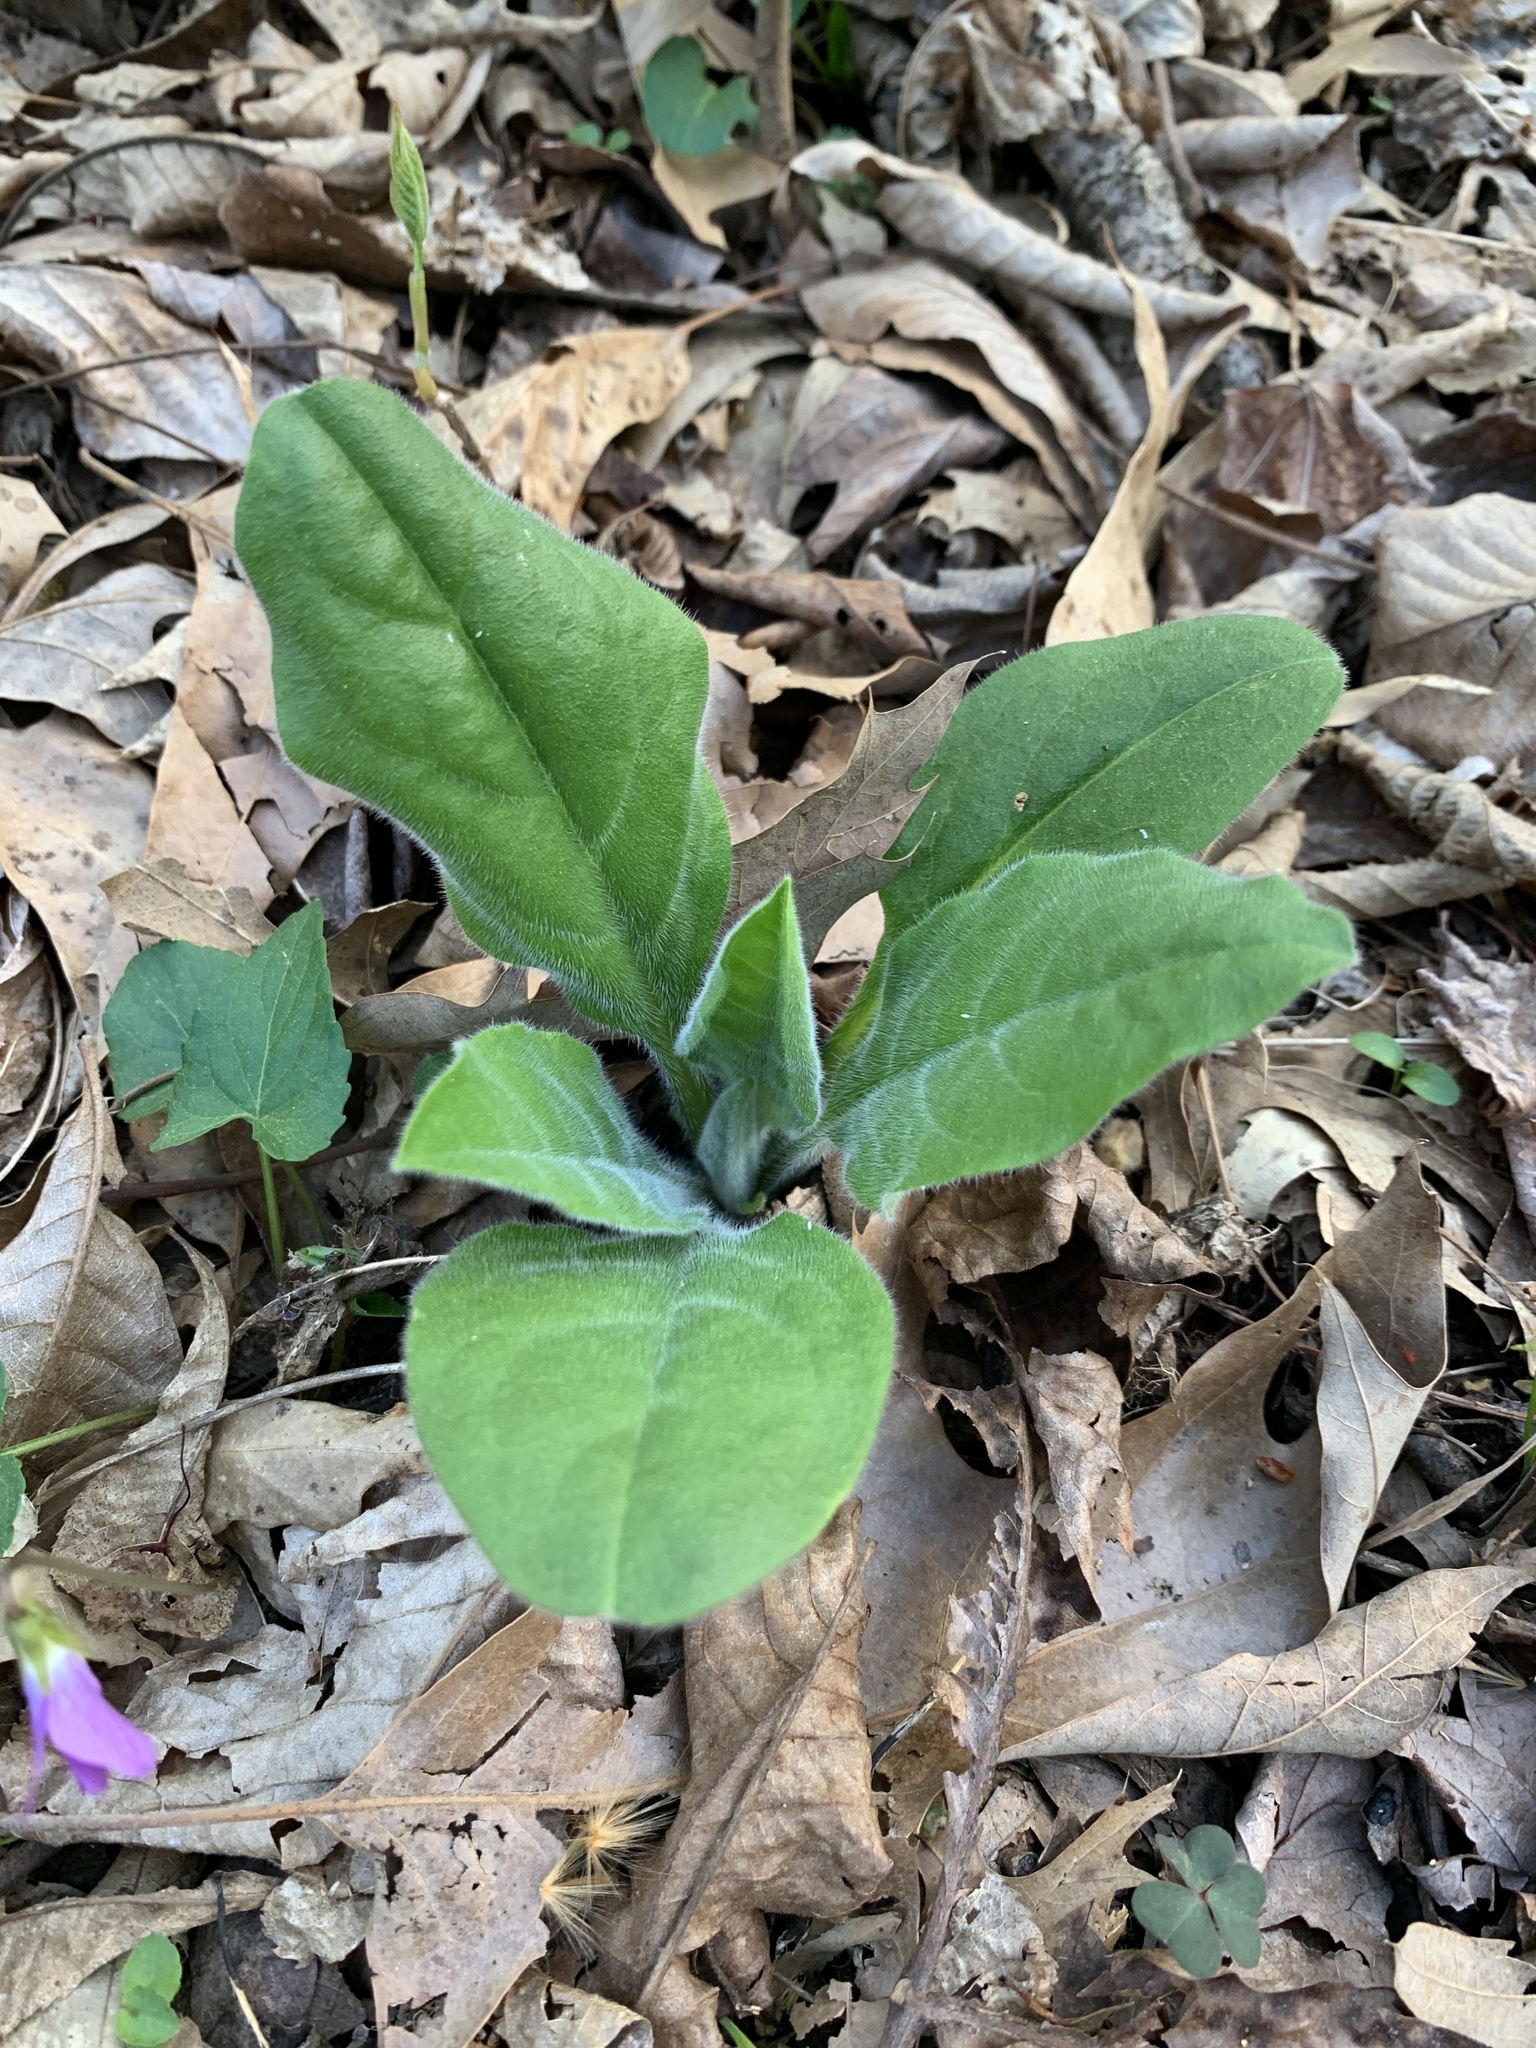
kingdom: Plantae
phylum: Tracheophyta
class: Magnoliopsida
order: Boraginales
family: Boraginaceae
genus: Andersonglossum
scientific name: Andersonglossum virginianum
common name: Wild comfrey
